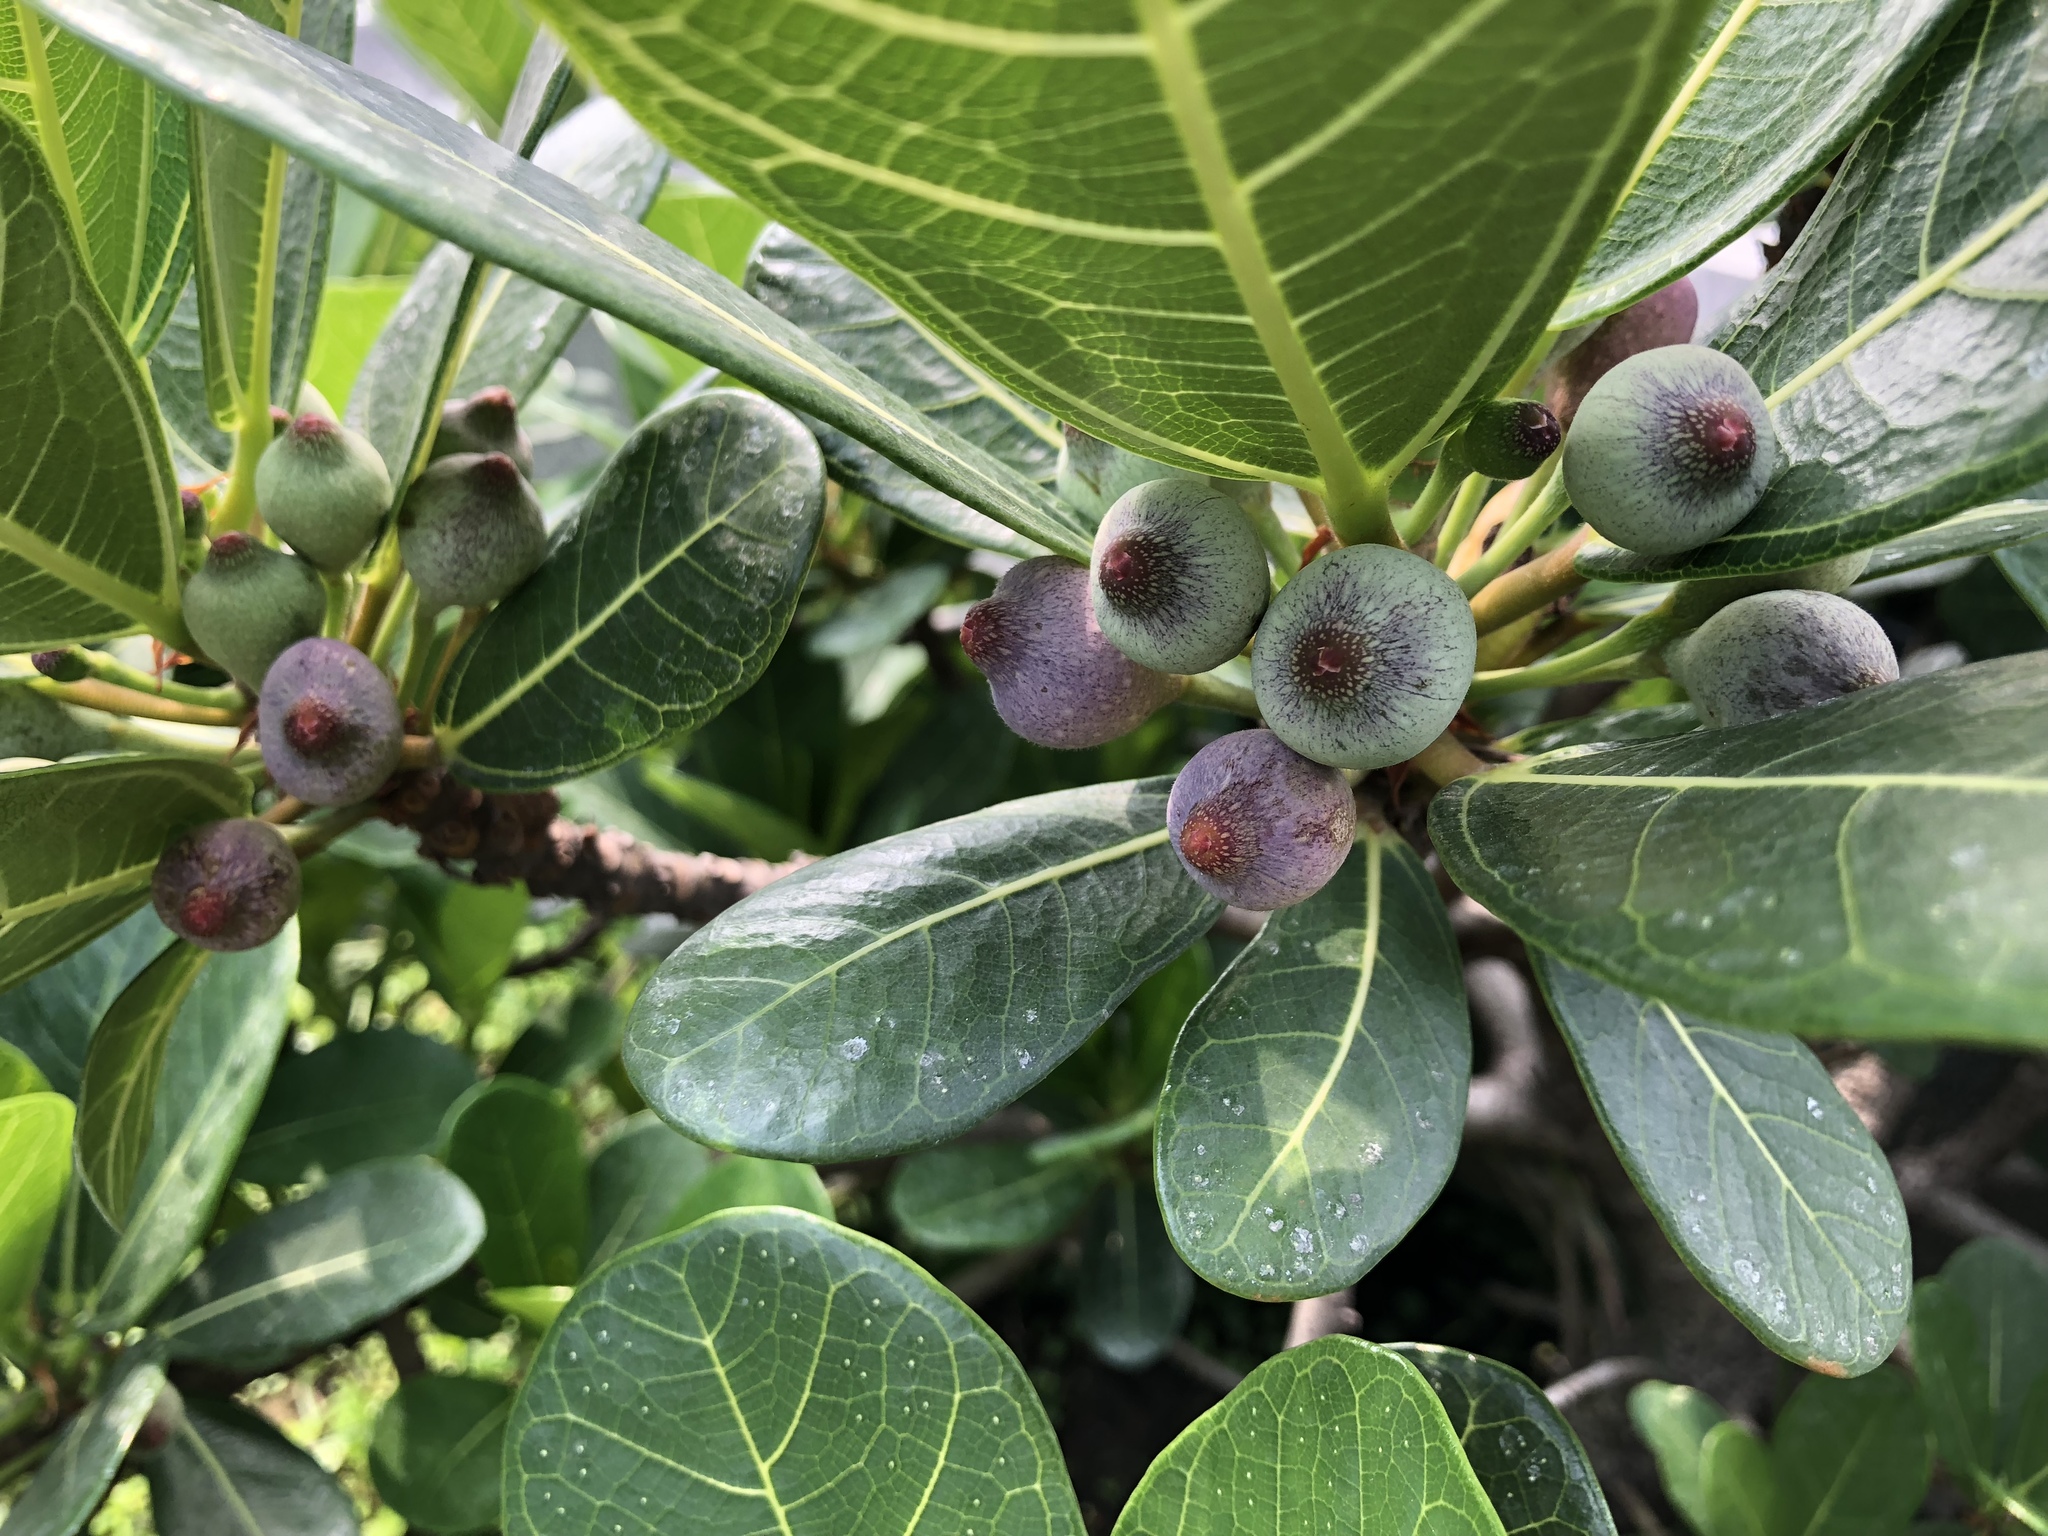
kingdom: Plantae
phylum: Tracheophyta
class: Magnoliopsida
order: Rosales
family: Moraceae
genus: Ficus
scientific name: Ficus pedunculosa
